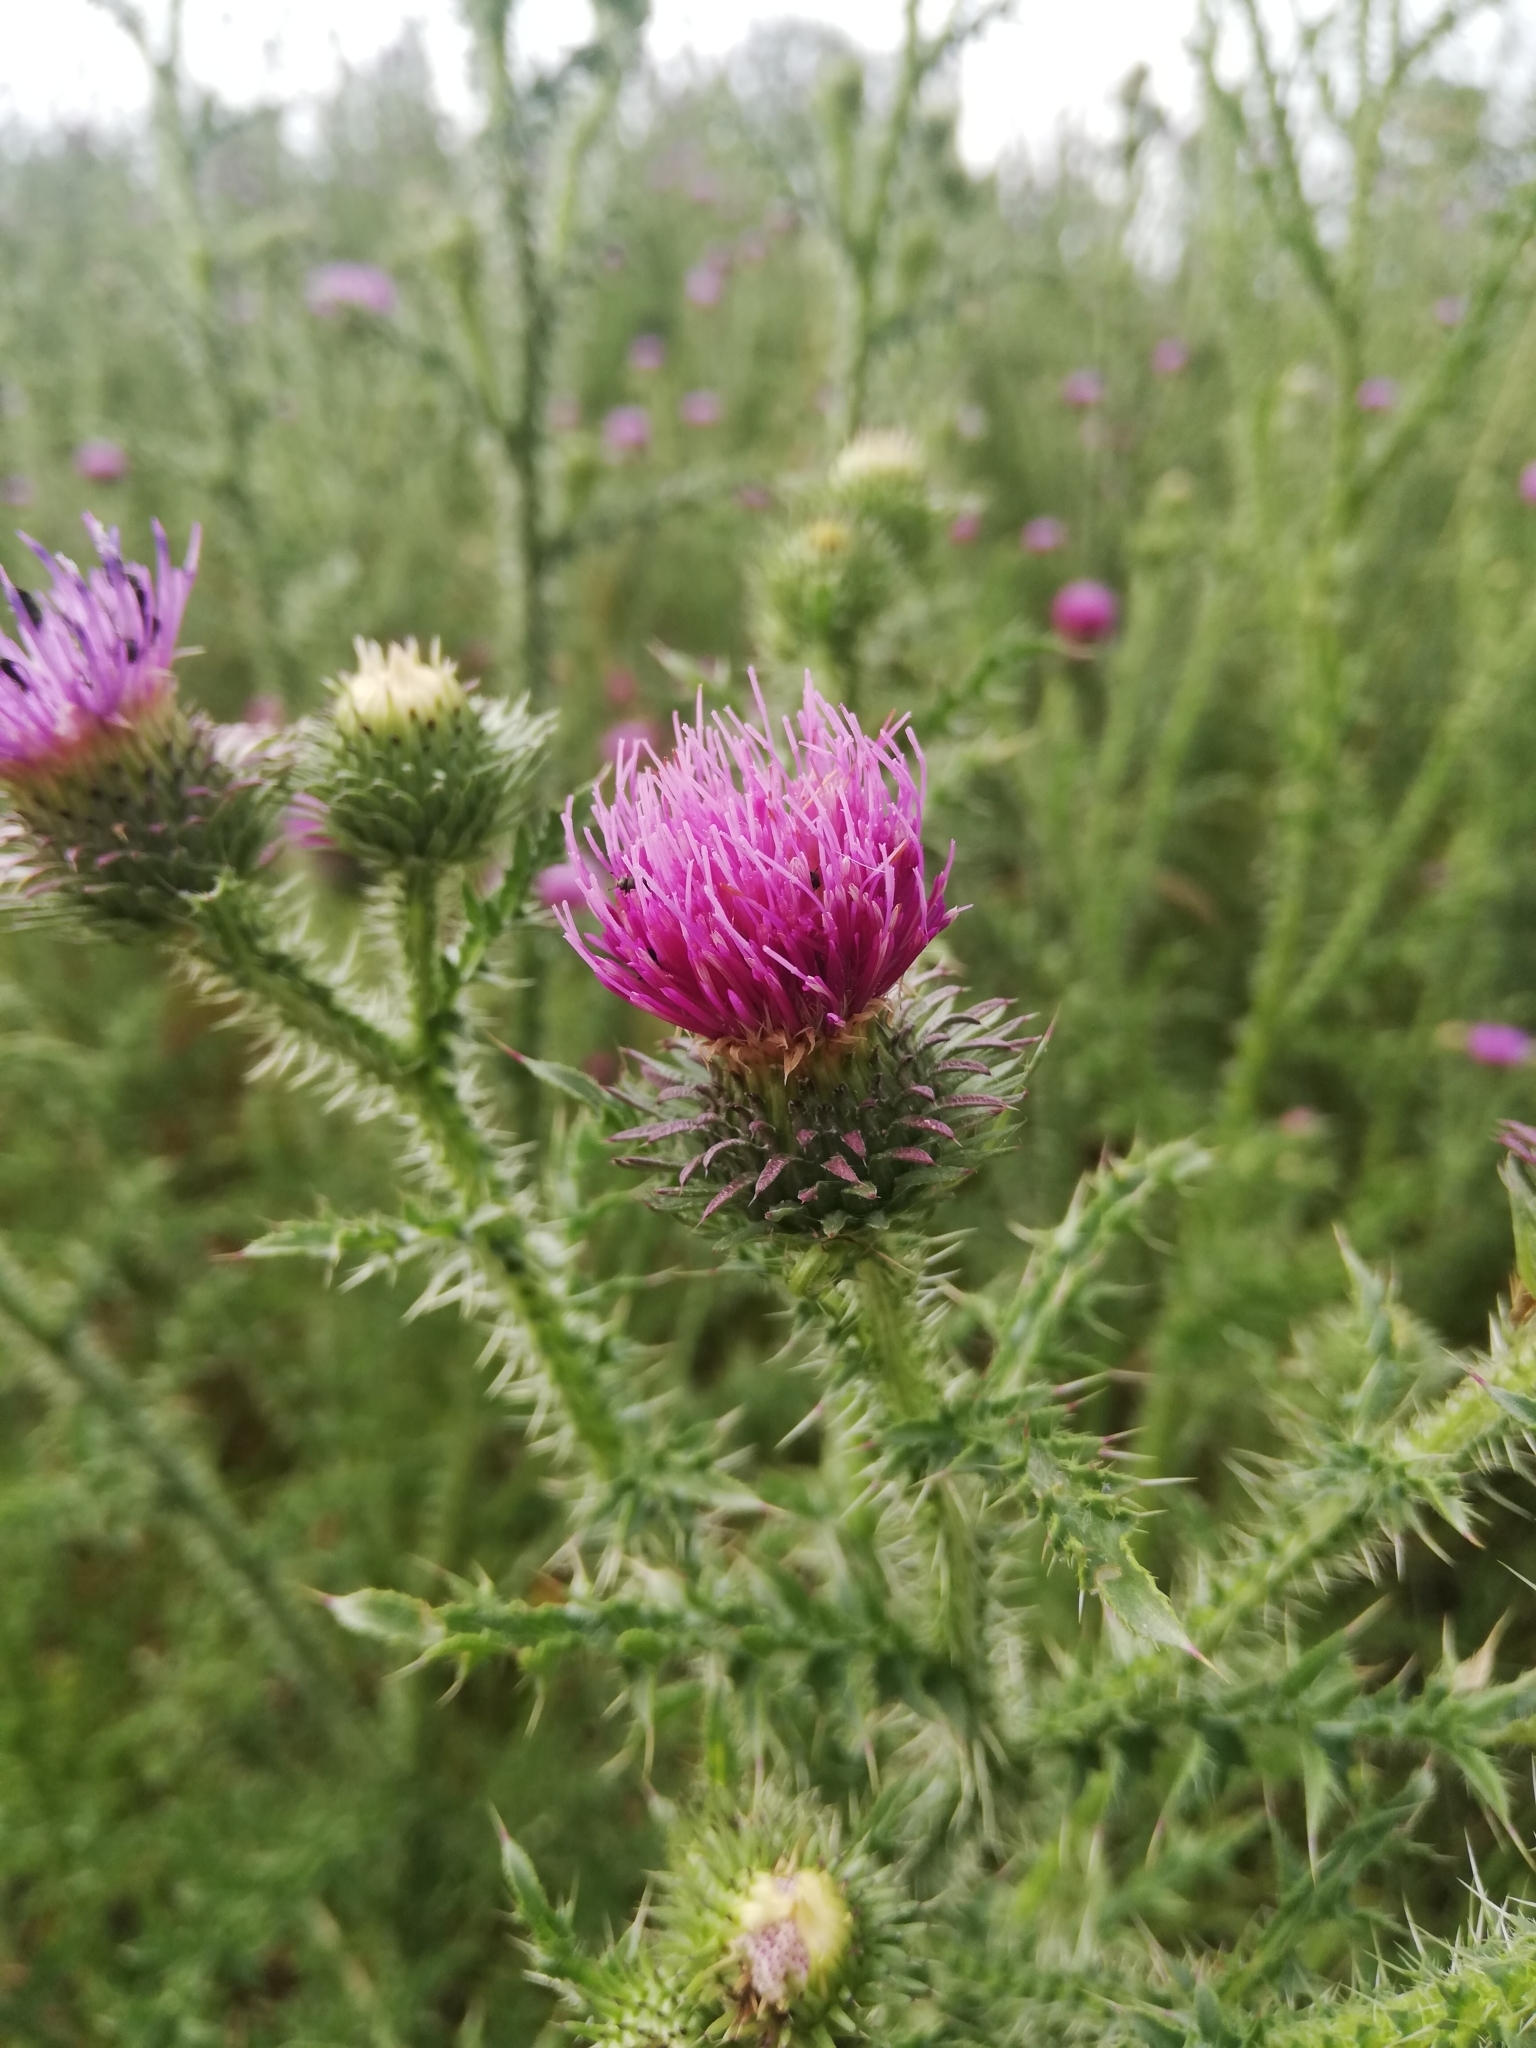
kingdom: Plantae
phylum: Tracheophyta
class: Magnoliopsida
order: Asterales
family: Asteraceae
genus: Carduus
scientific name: Carduus acanthoides
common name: Plumeless thistle
